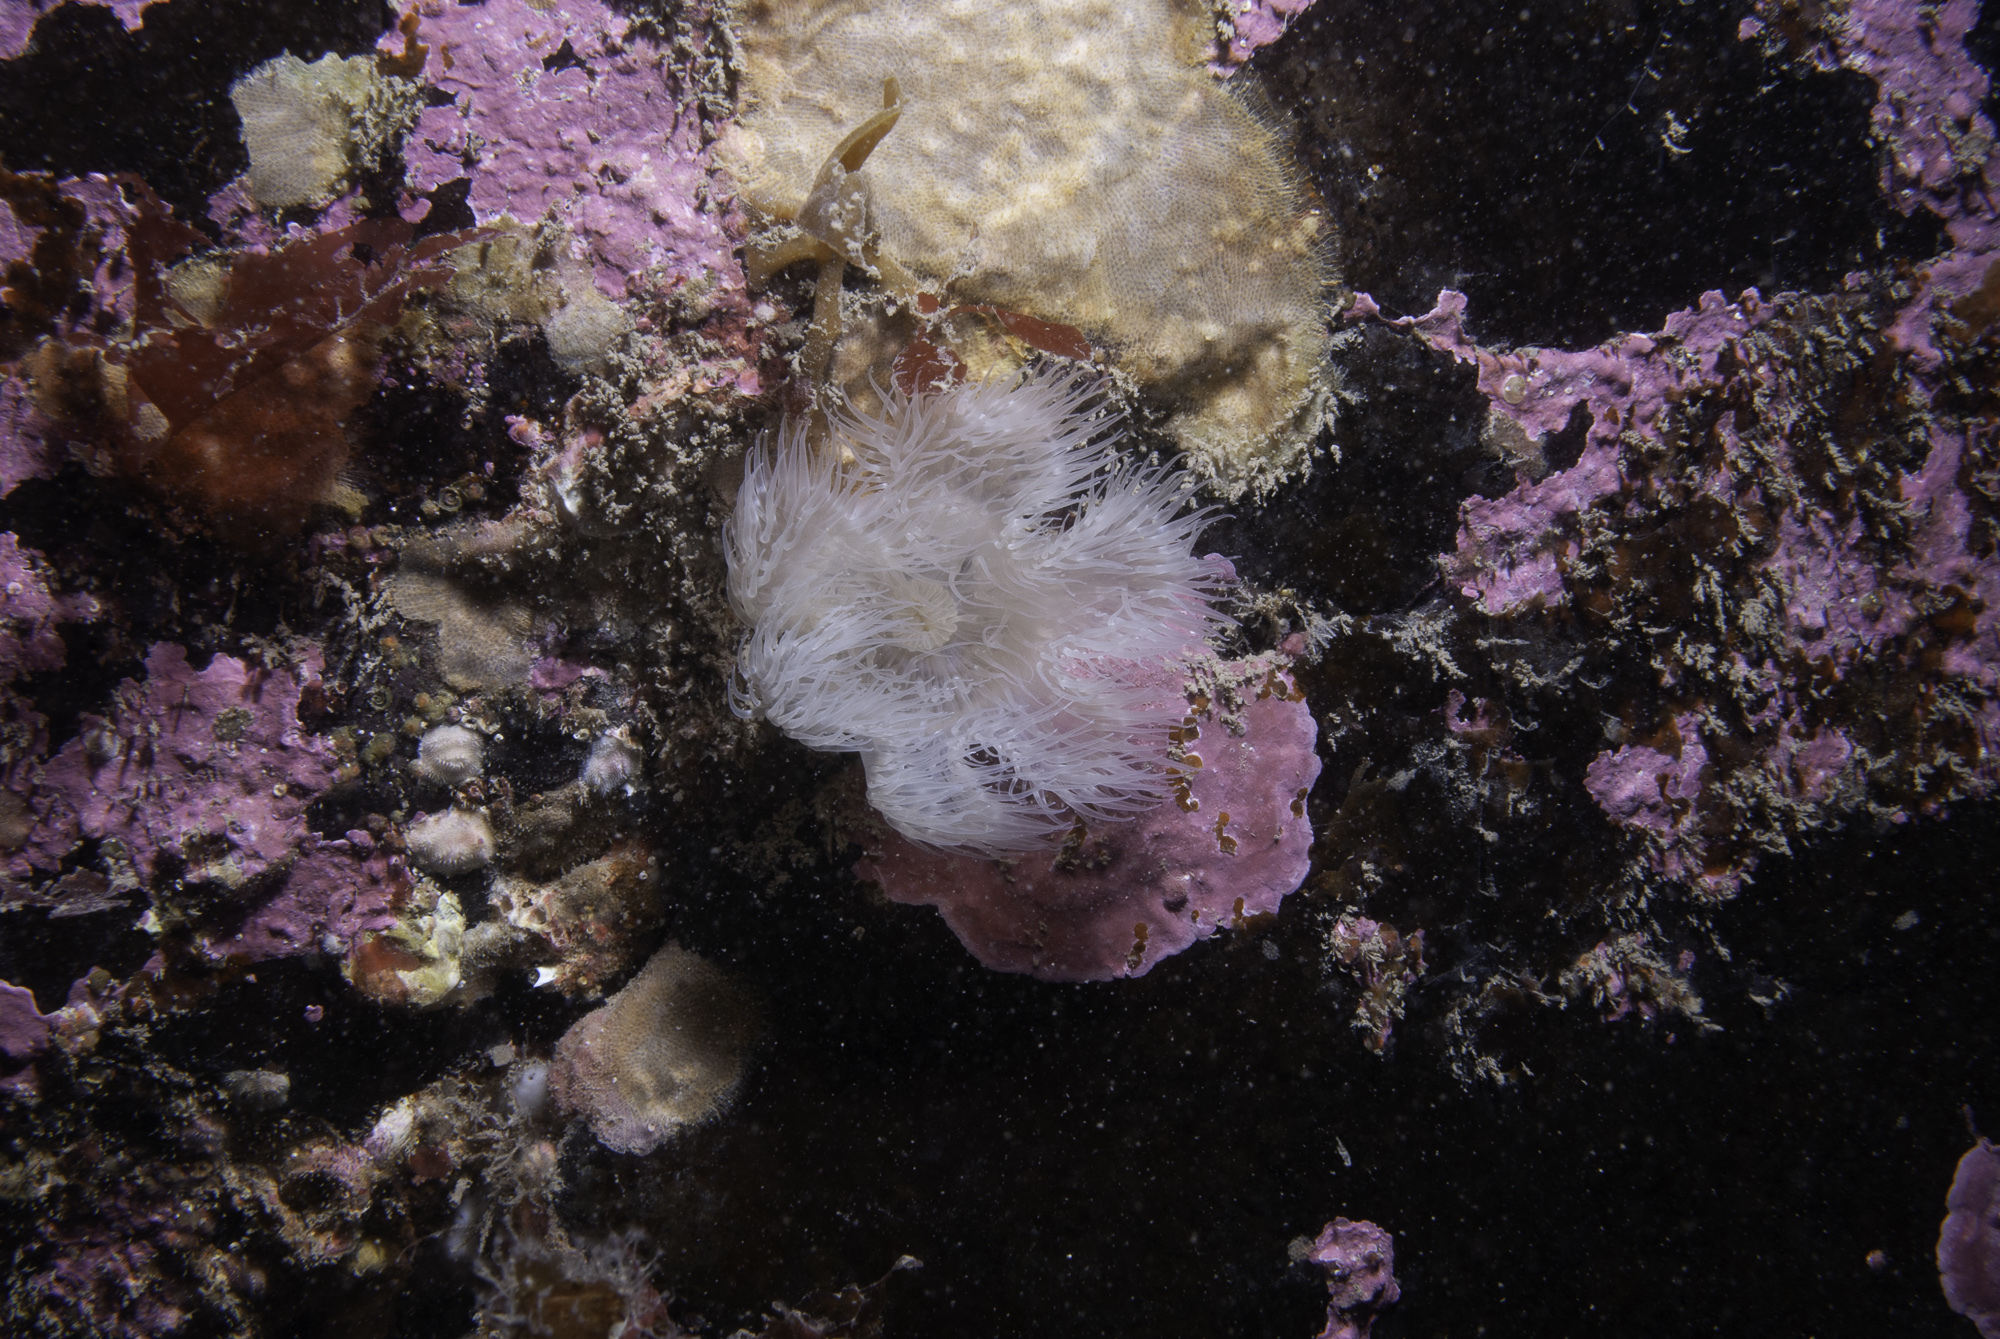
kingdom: Animalia
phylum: Cnidaria
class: Anthozoa
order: Actiniaria
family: Metridiidae
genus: Metridium
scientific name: Metridium senile
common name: Clonal plumose anemone
